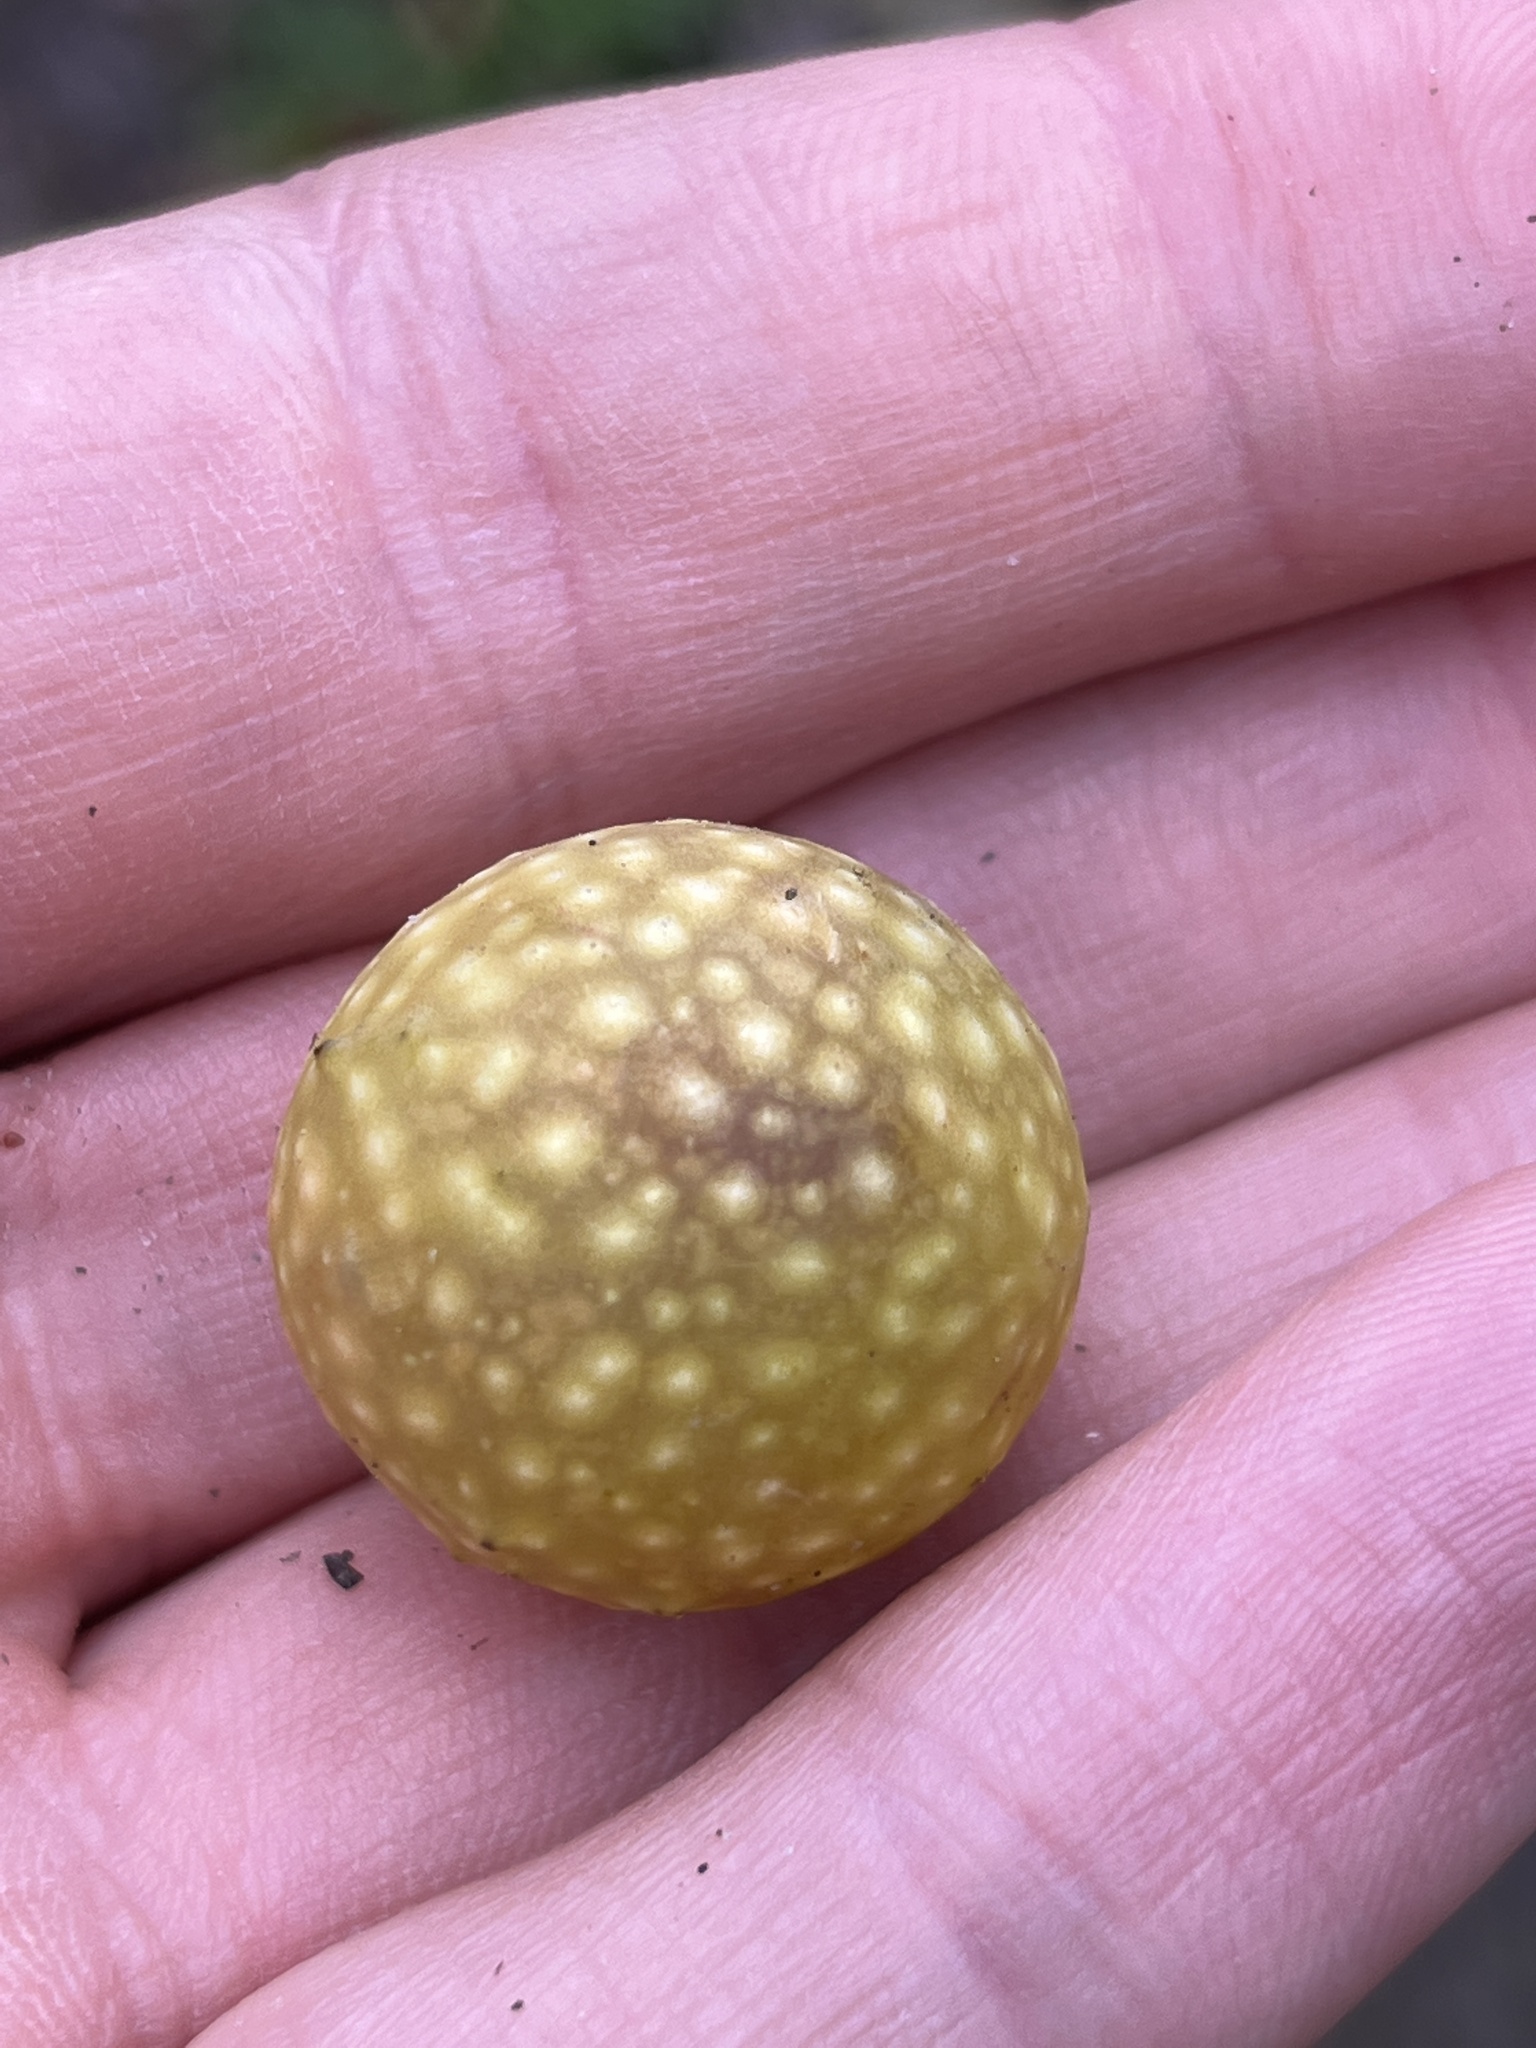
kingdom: Animalia
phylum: Arthropoda
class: Insecta
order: Hymenoptera
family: Cynipidae
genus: Cynips
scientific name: Cynips quercusfolii
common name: Cherry gall
